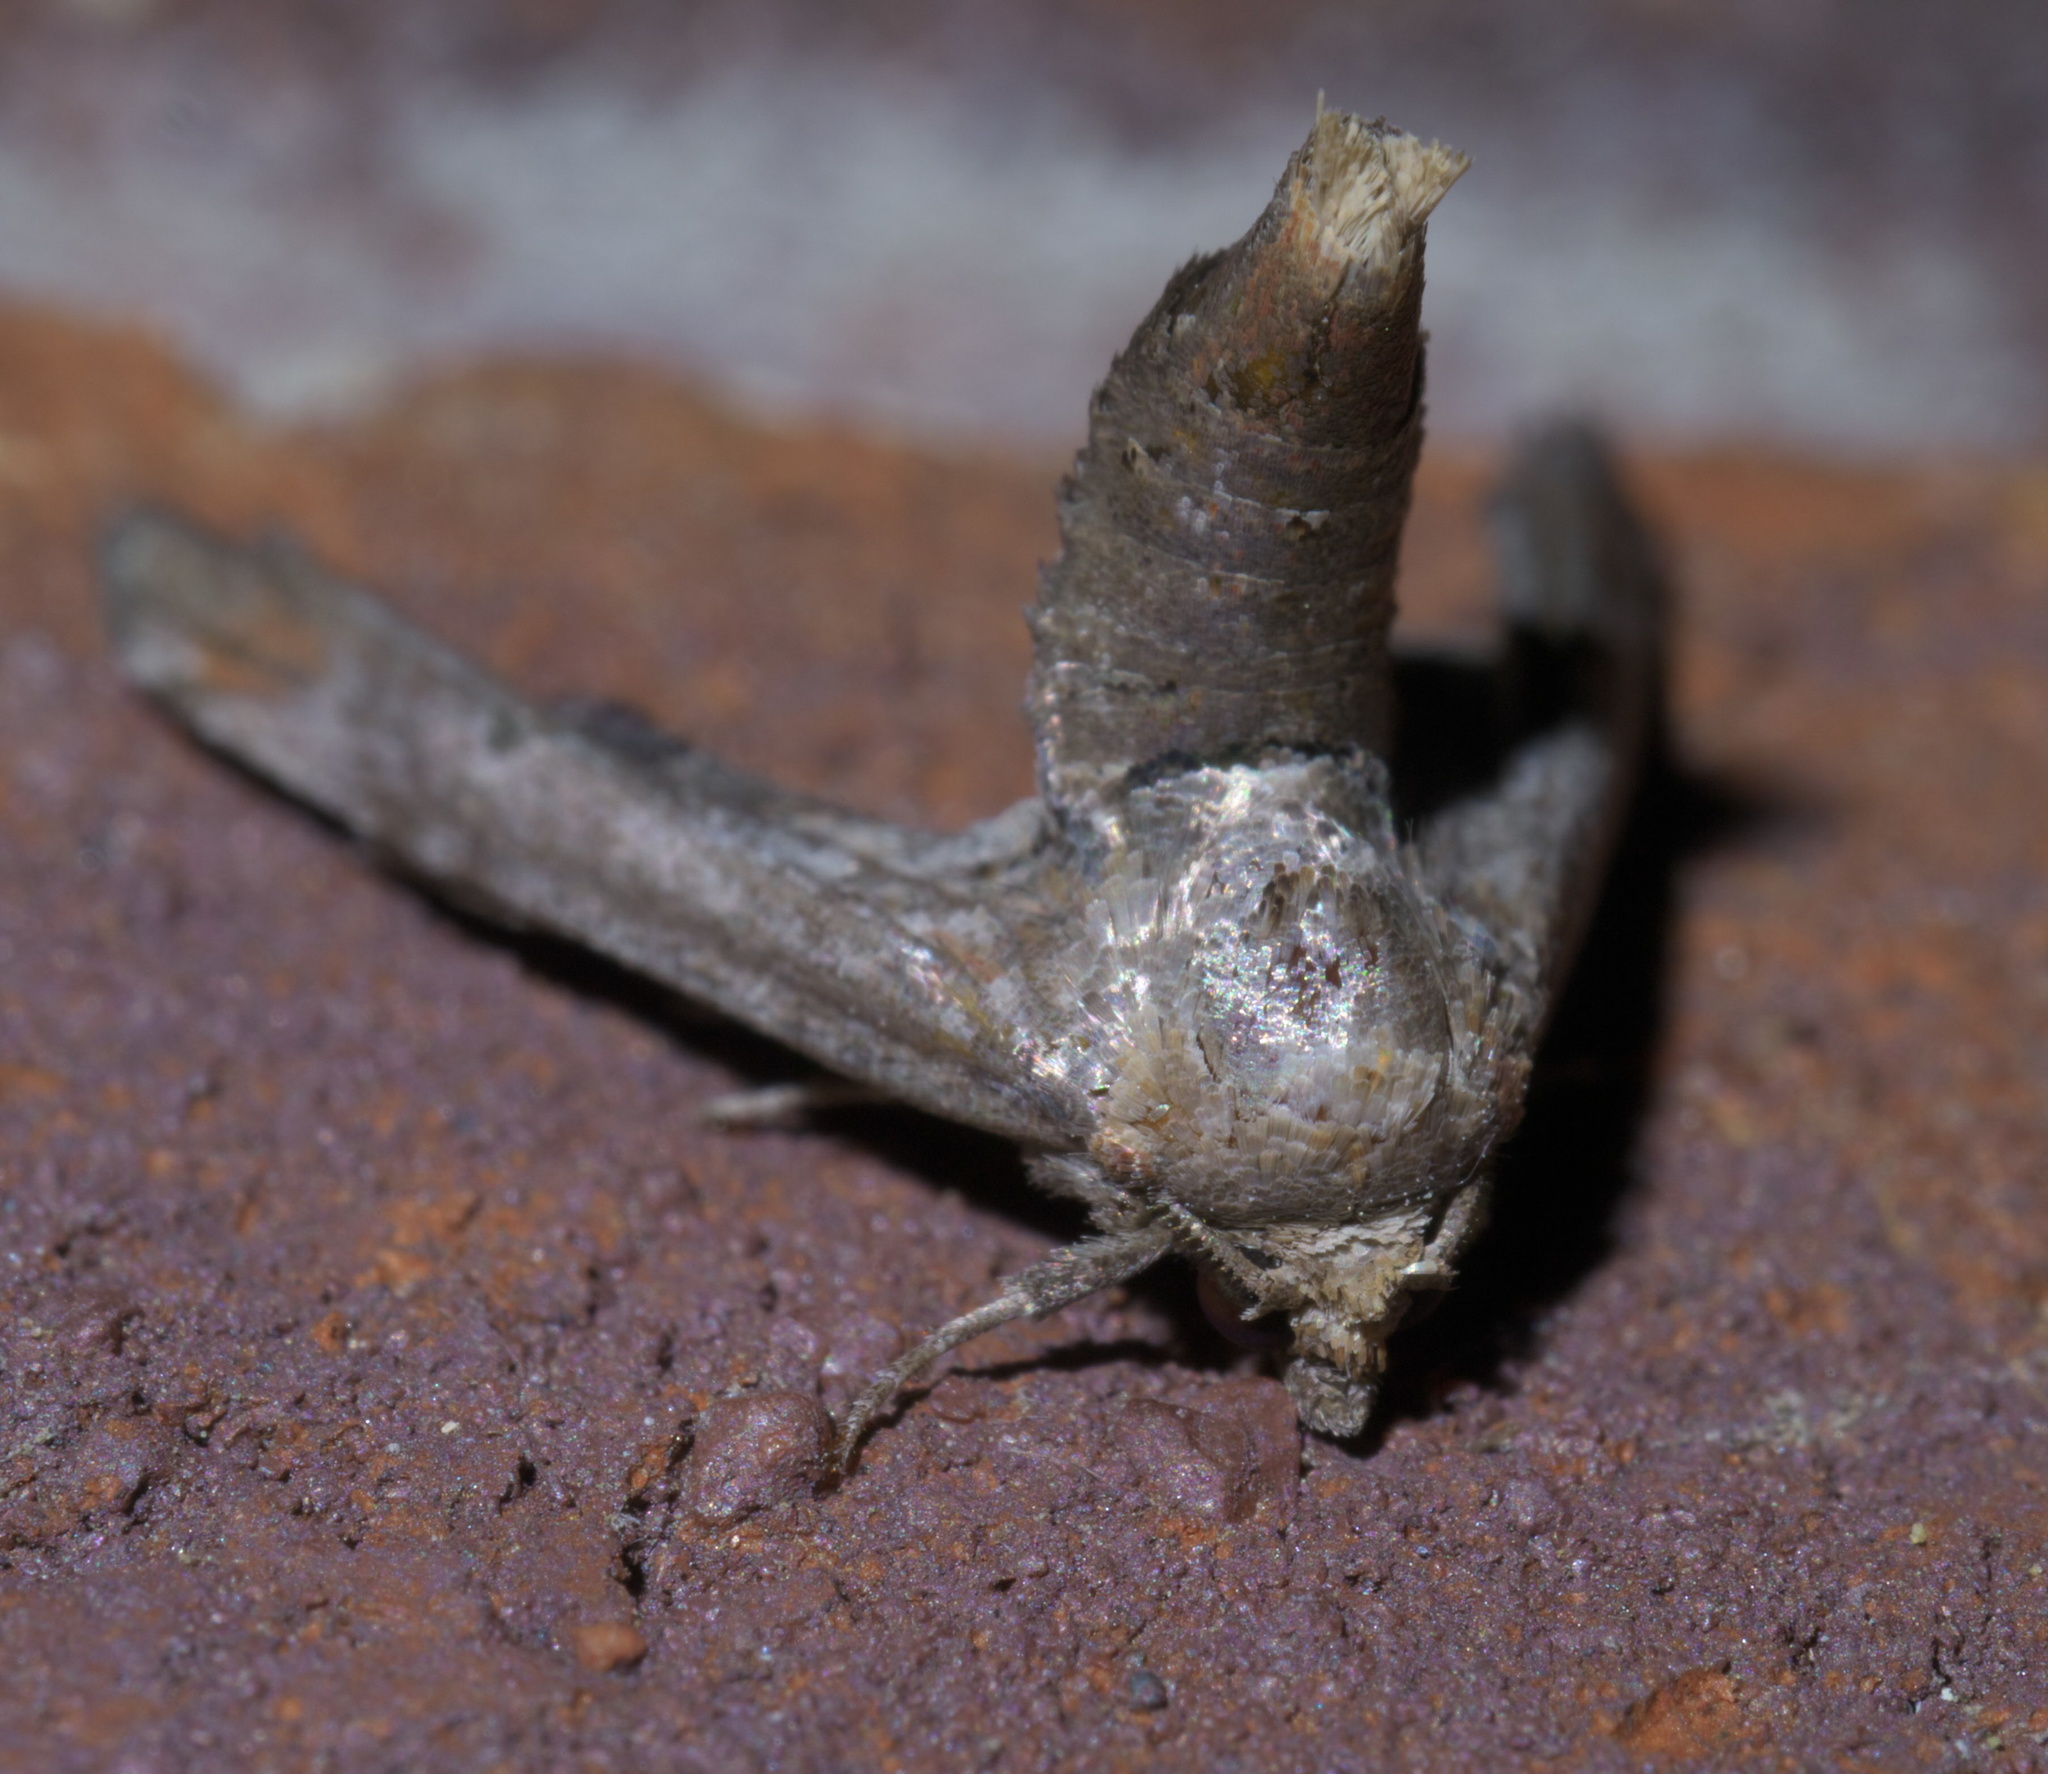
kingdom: Animalia
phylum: Arthropoda
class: Insecta
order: Lepidoptera
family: Euteliidae
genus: Marathyssa
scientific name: Marathyssa inficita
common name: Dark marathyssa moth
